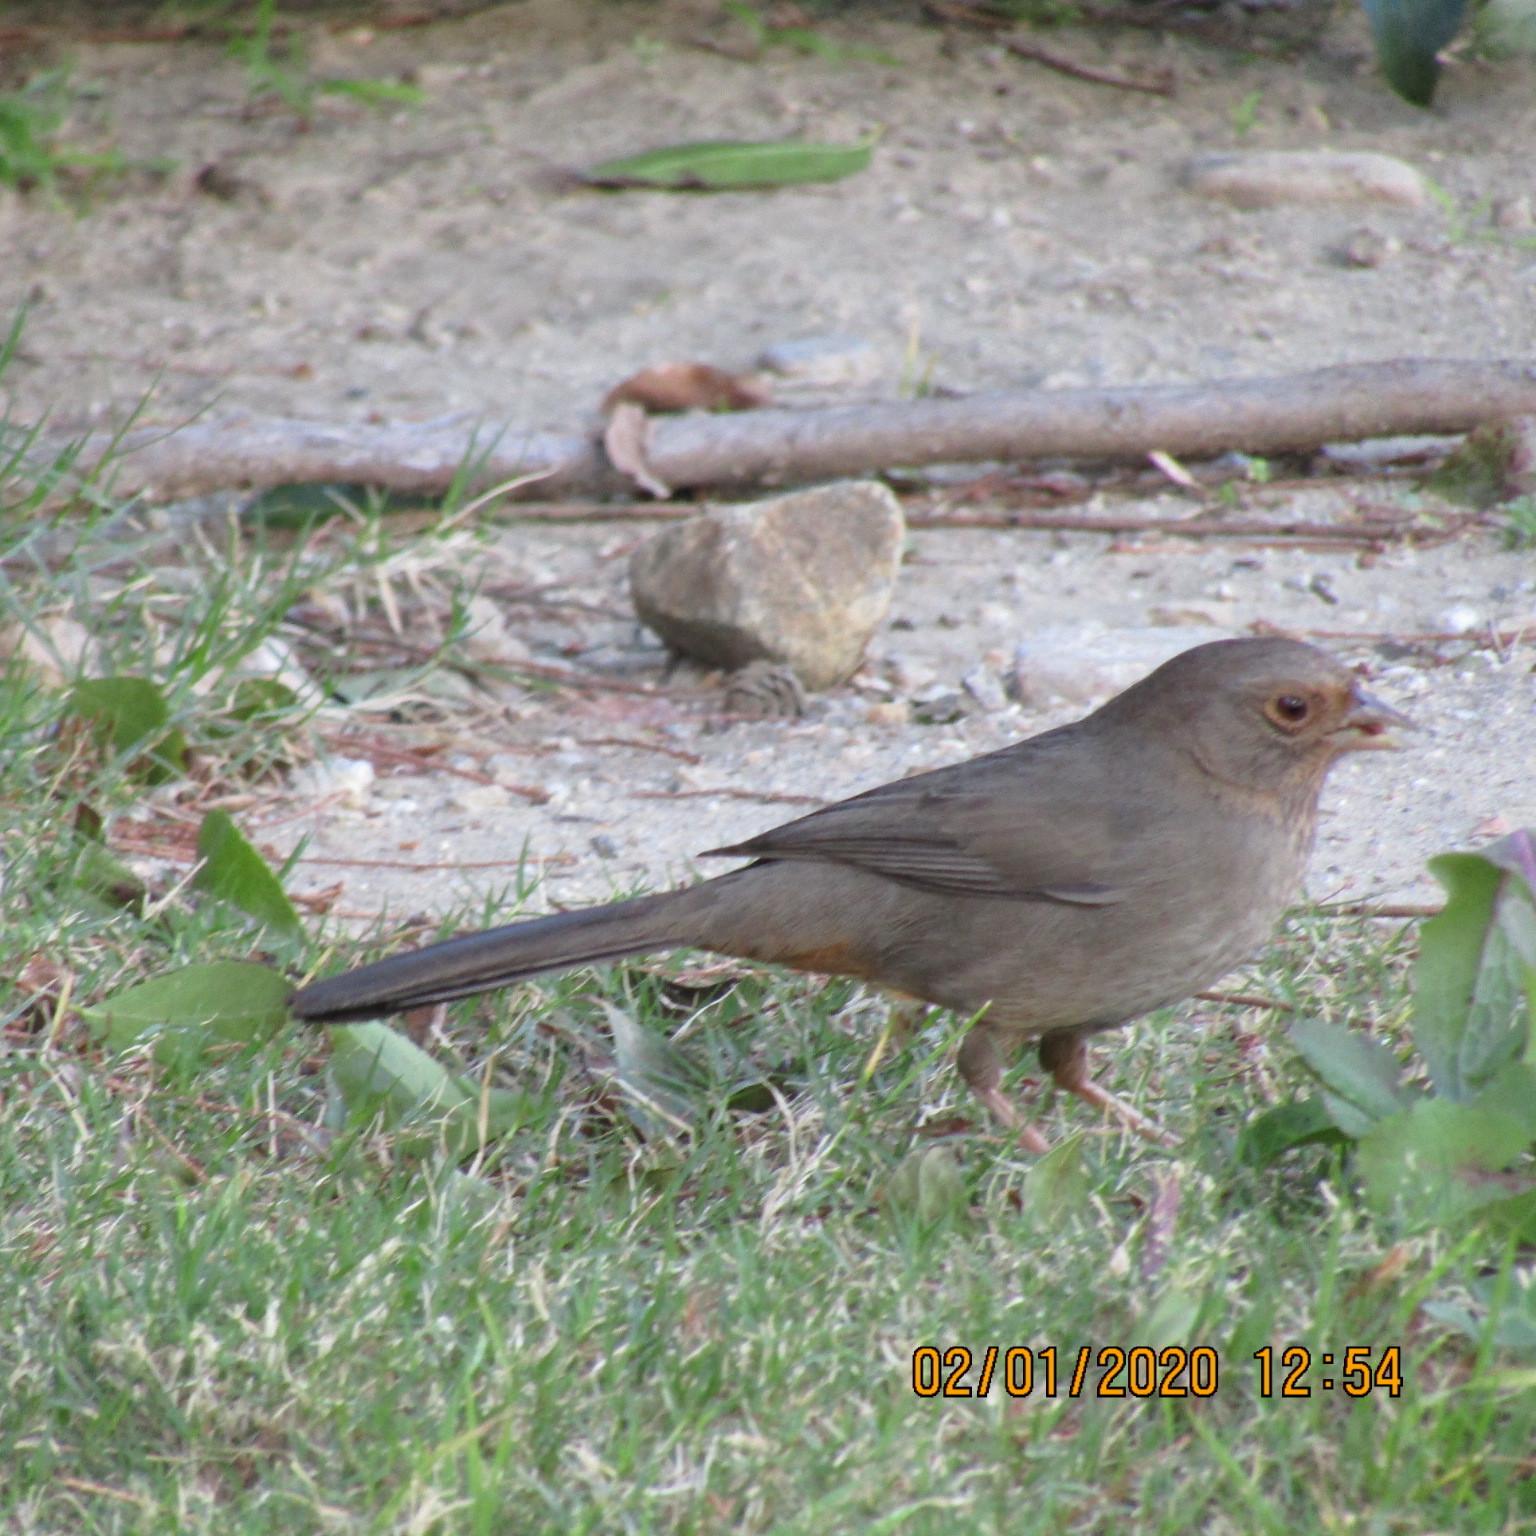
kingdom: Animalia
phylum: Chordata
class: Aves
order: Passeriformes
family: Passerellidae
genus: Melozone
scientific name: Melozone crissalis
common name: California towhee
